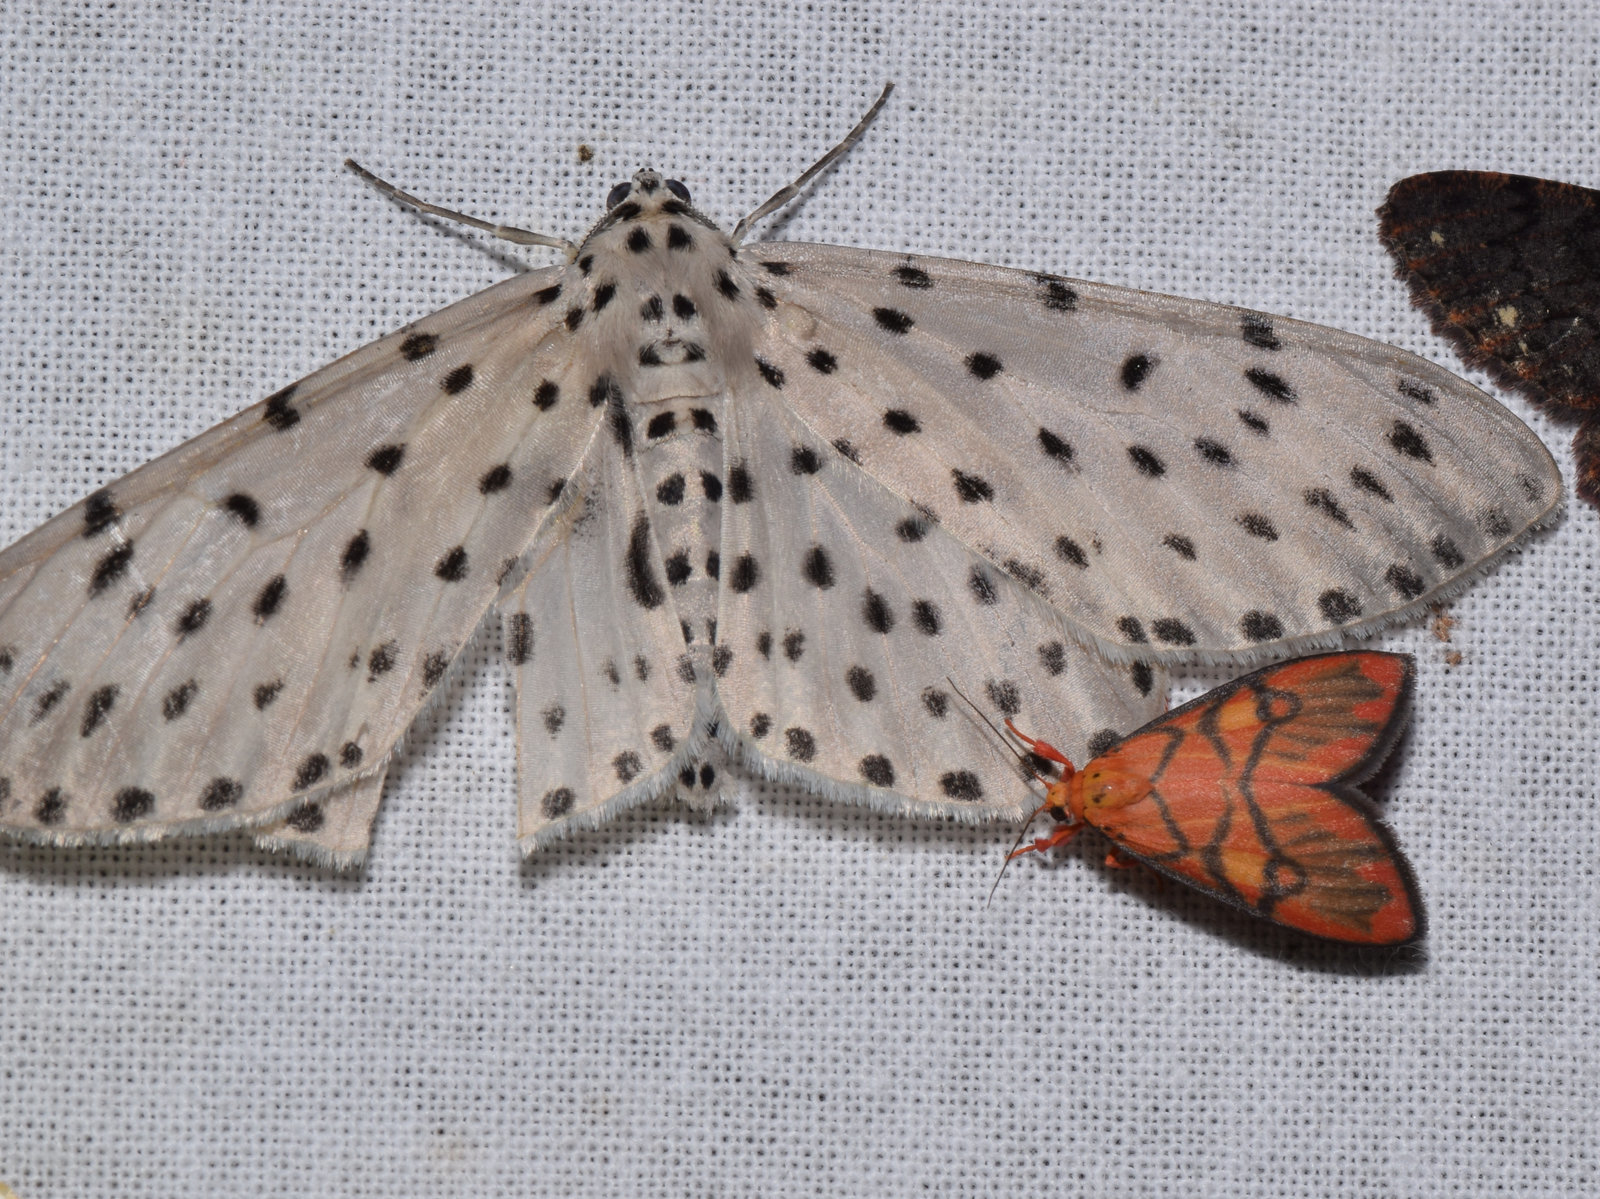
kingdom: Animalia
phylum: Arthropoda
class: Insecta
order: Lepidoptera
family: Geometridae
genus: Antipercnia
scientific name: Antipercnia belluaria
